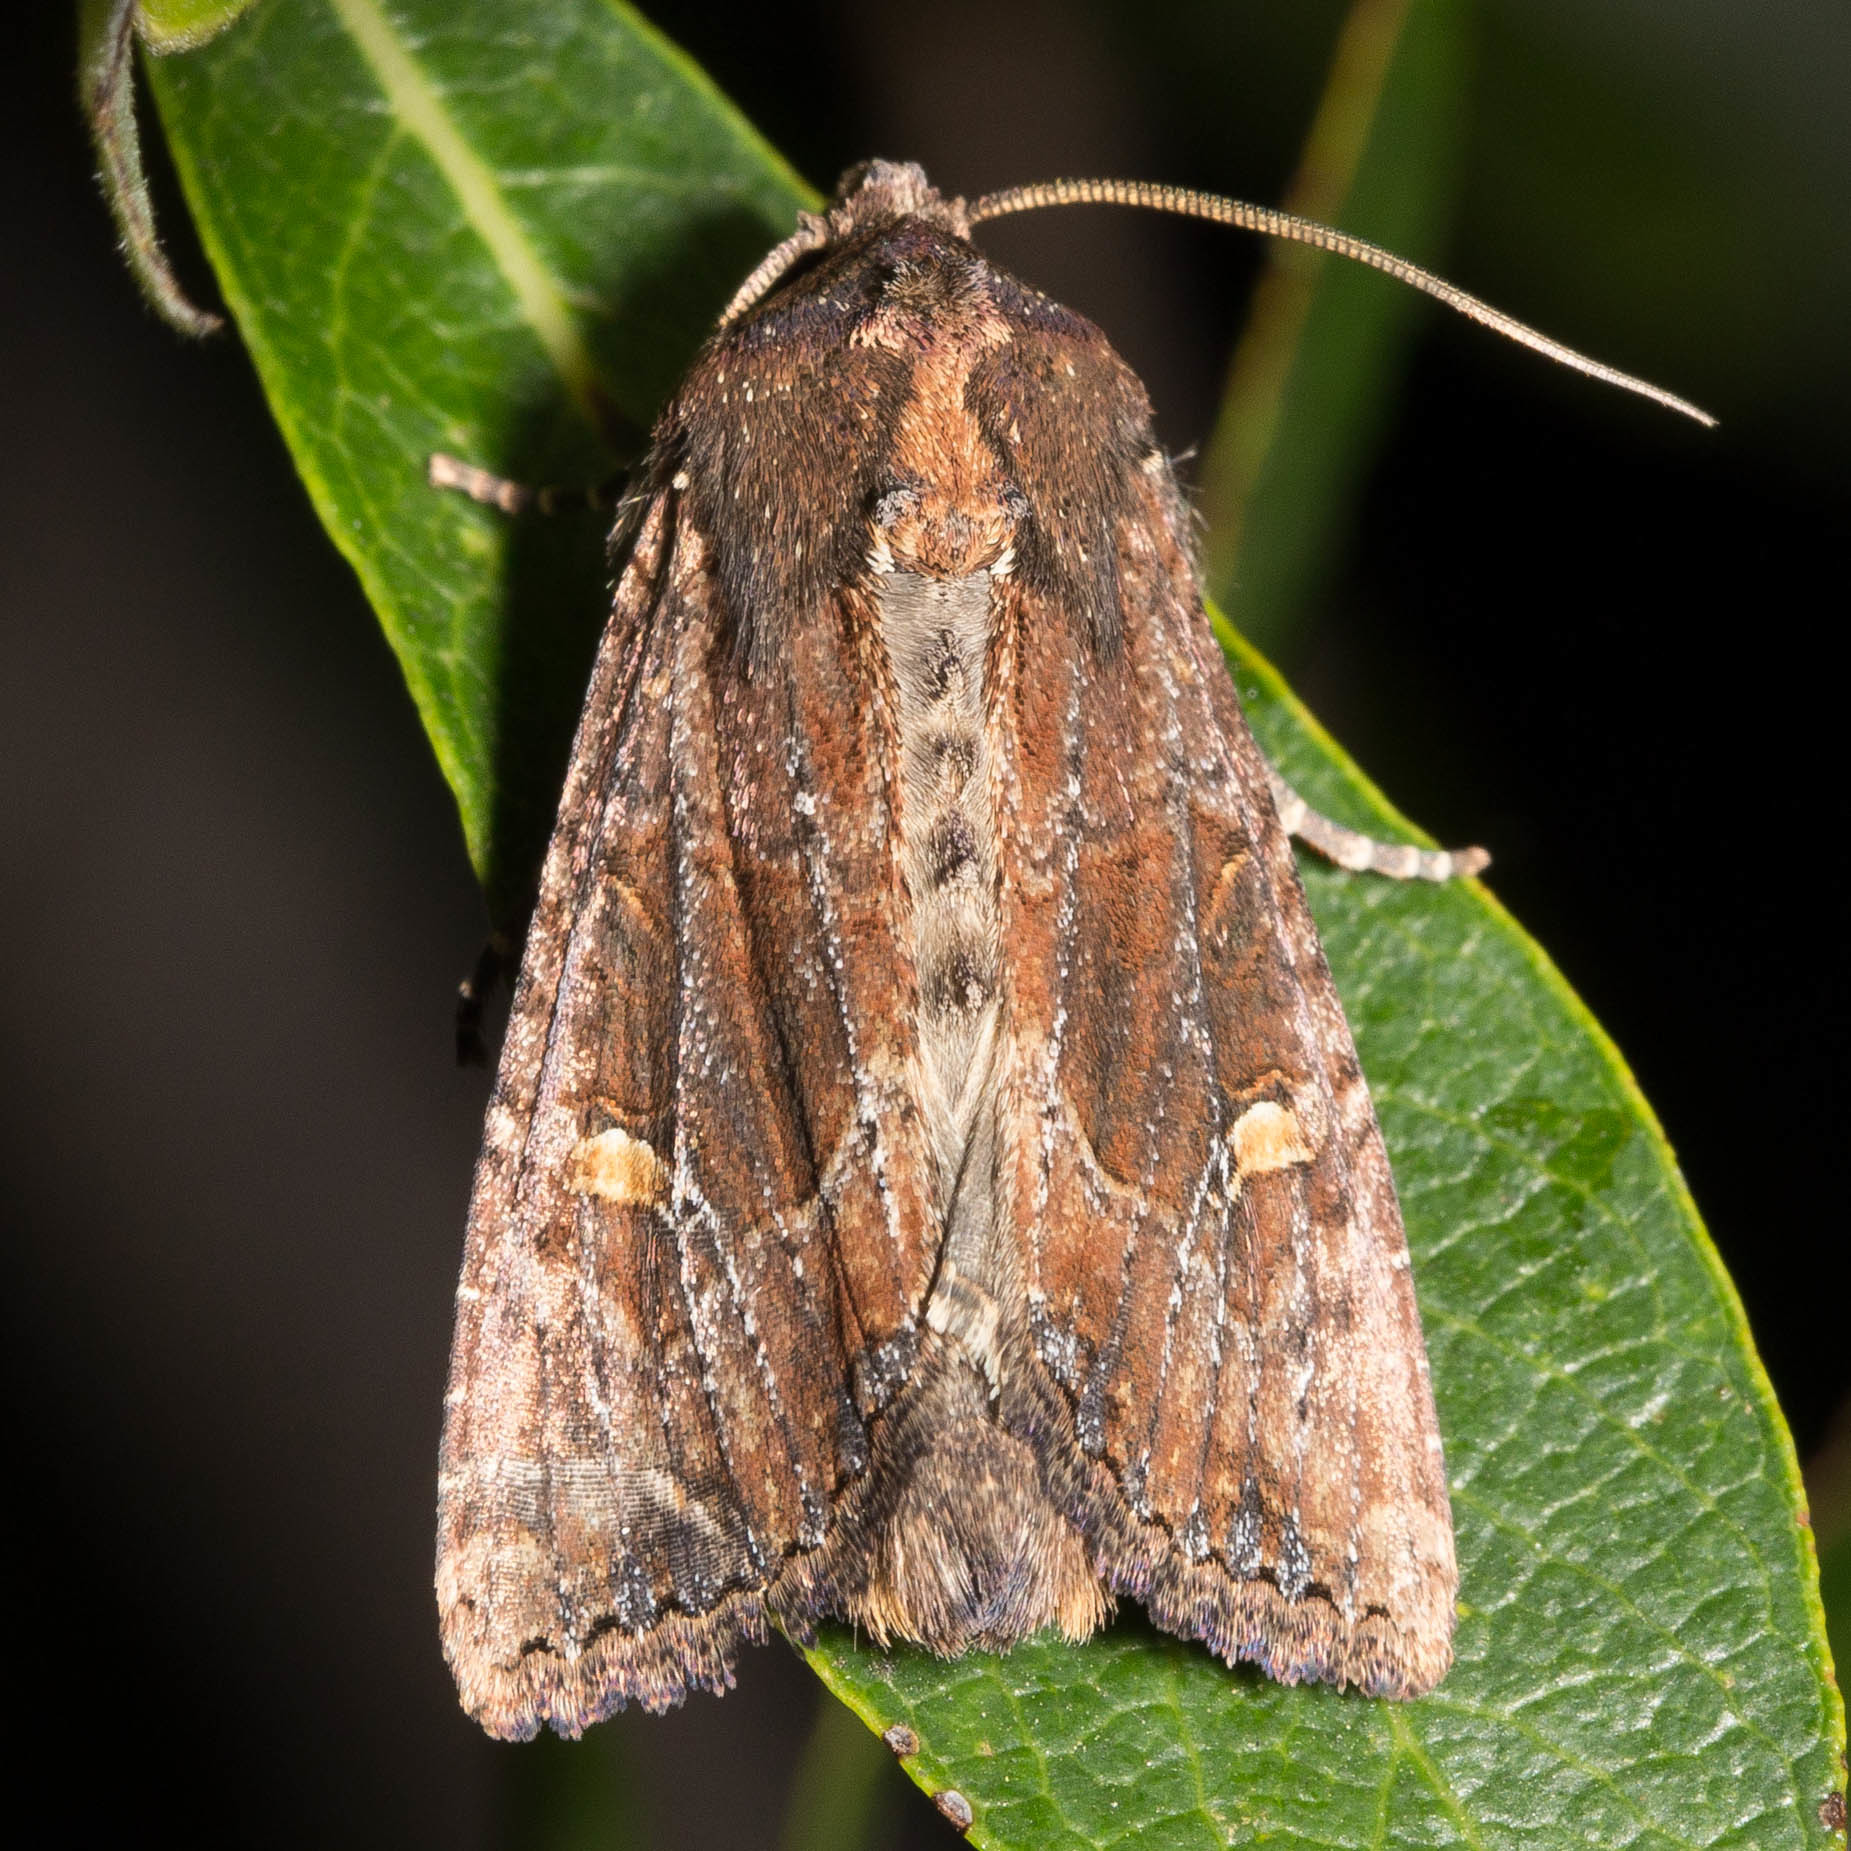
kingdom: Animalia
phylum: Arthropoda
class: Insecta
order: Lepidoptera
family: Noctuidae
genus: Helotropha
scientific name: Helotropha reniformis
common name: Kidney-spotted rustic moth
